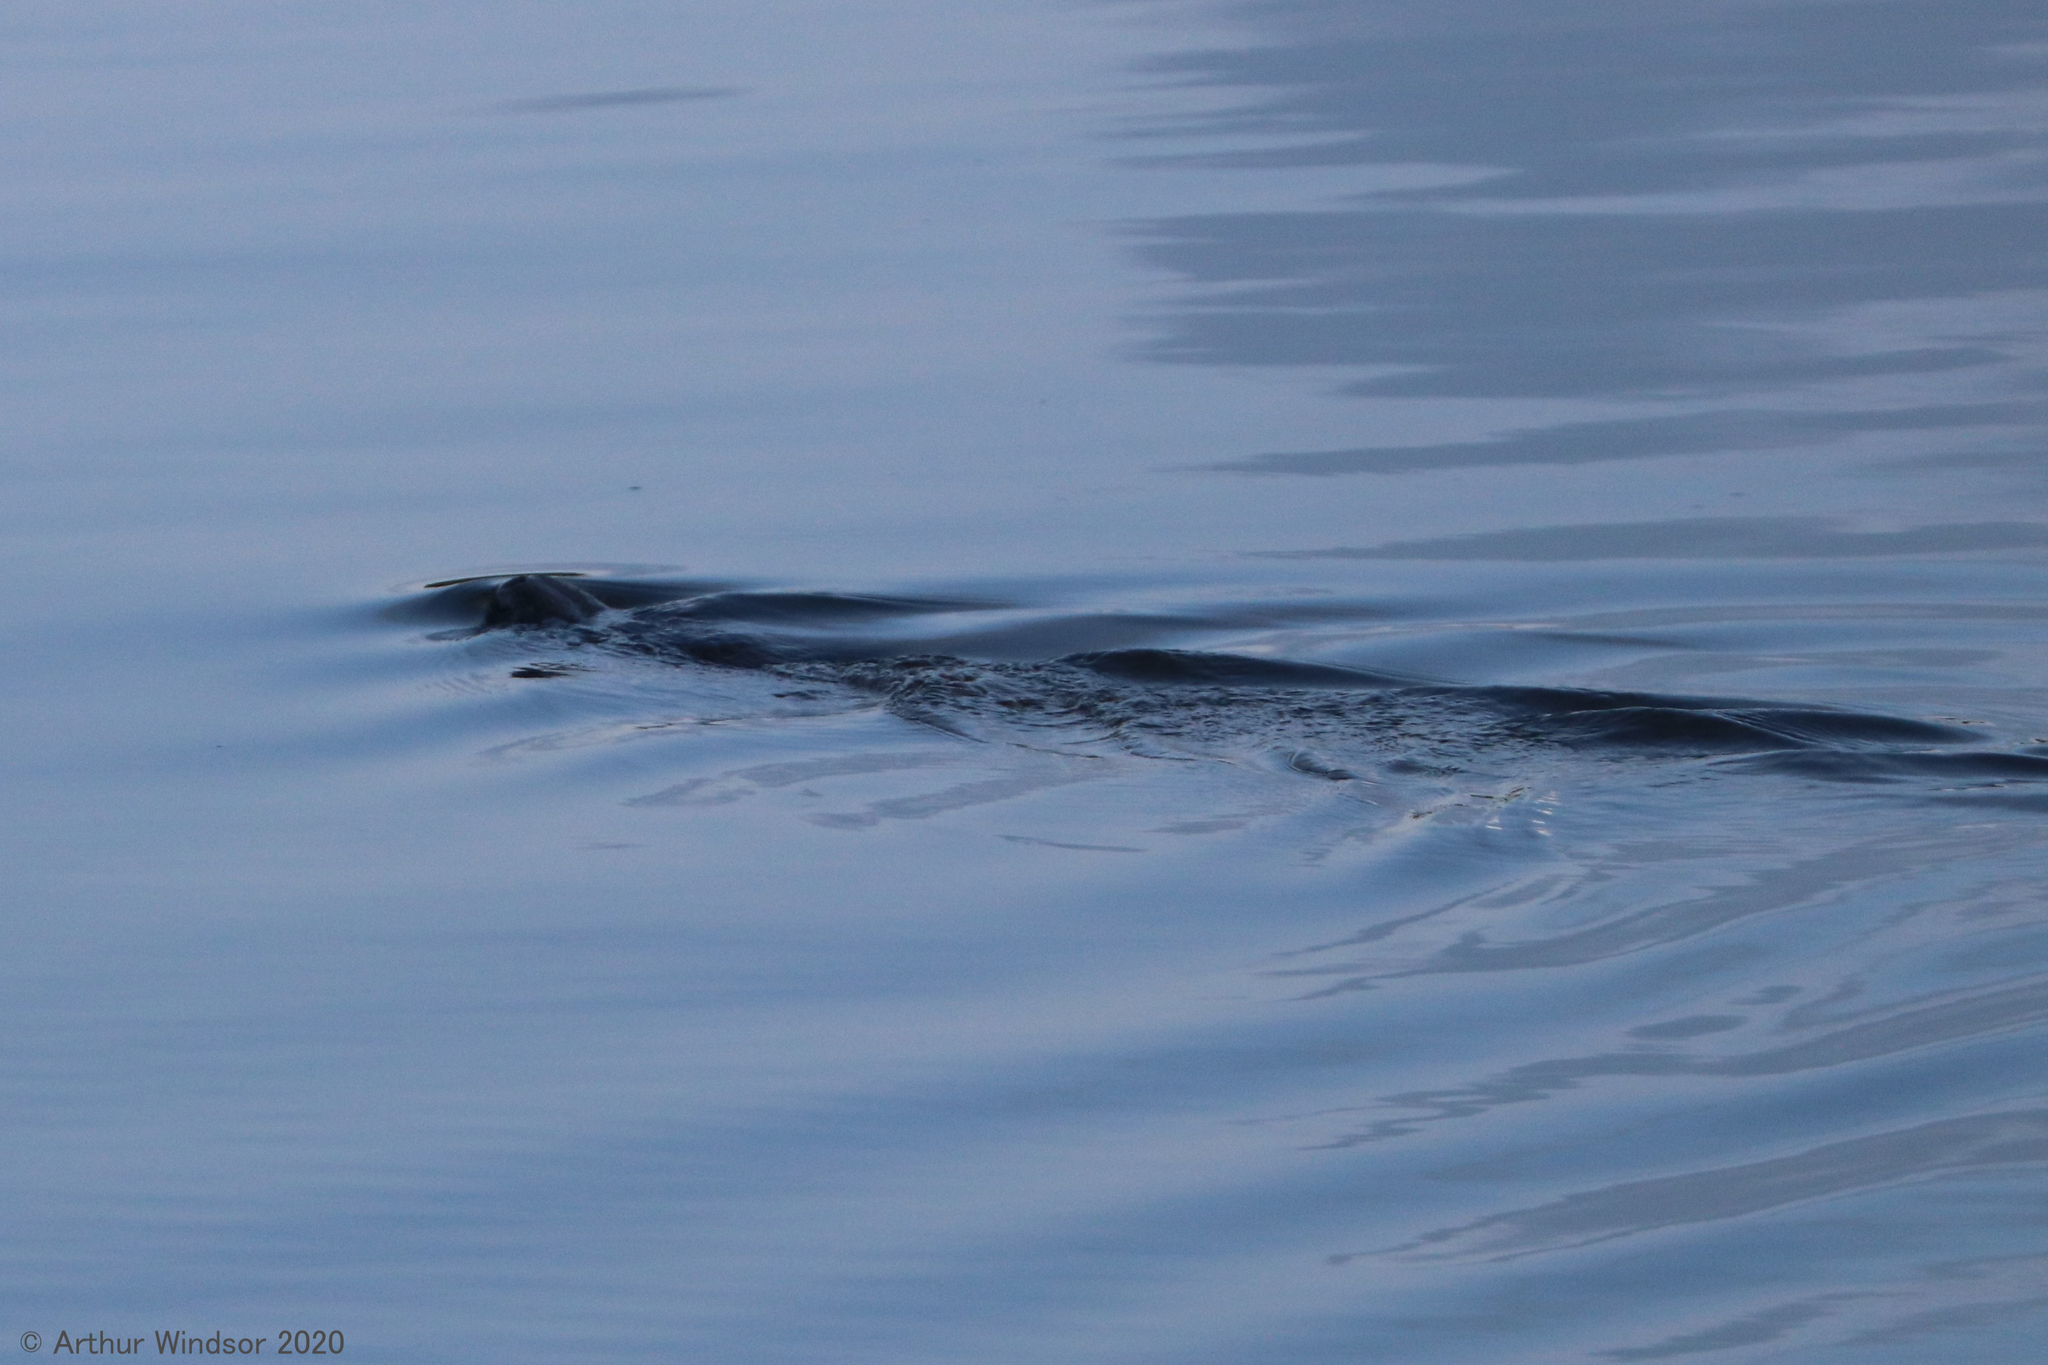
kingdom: Animalia
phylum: Chordata
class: Mammalia
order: Sirenia
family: Trichechidae
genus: Trichechus
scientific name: Trichechus manatus
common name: West indian manatee
